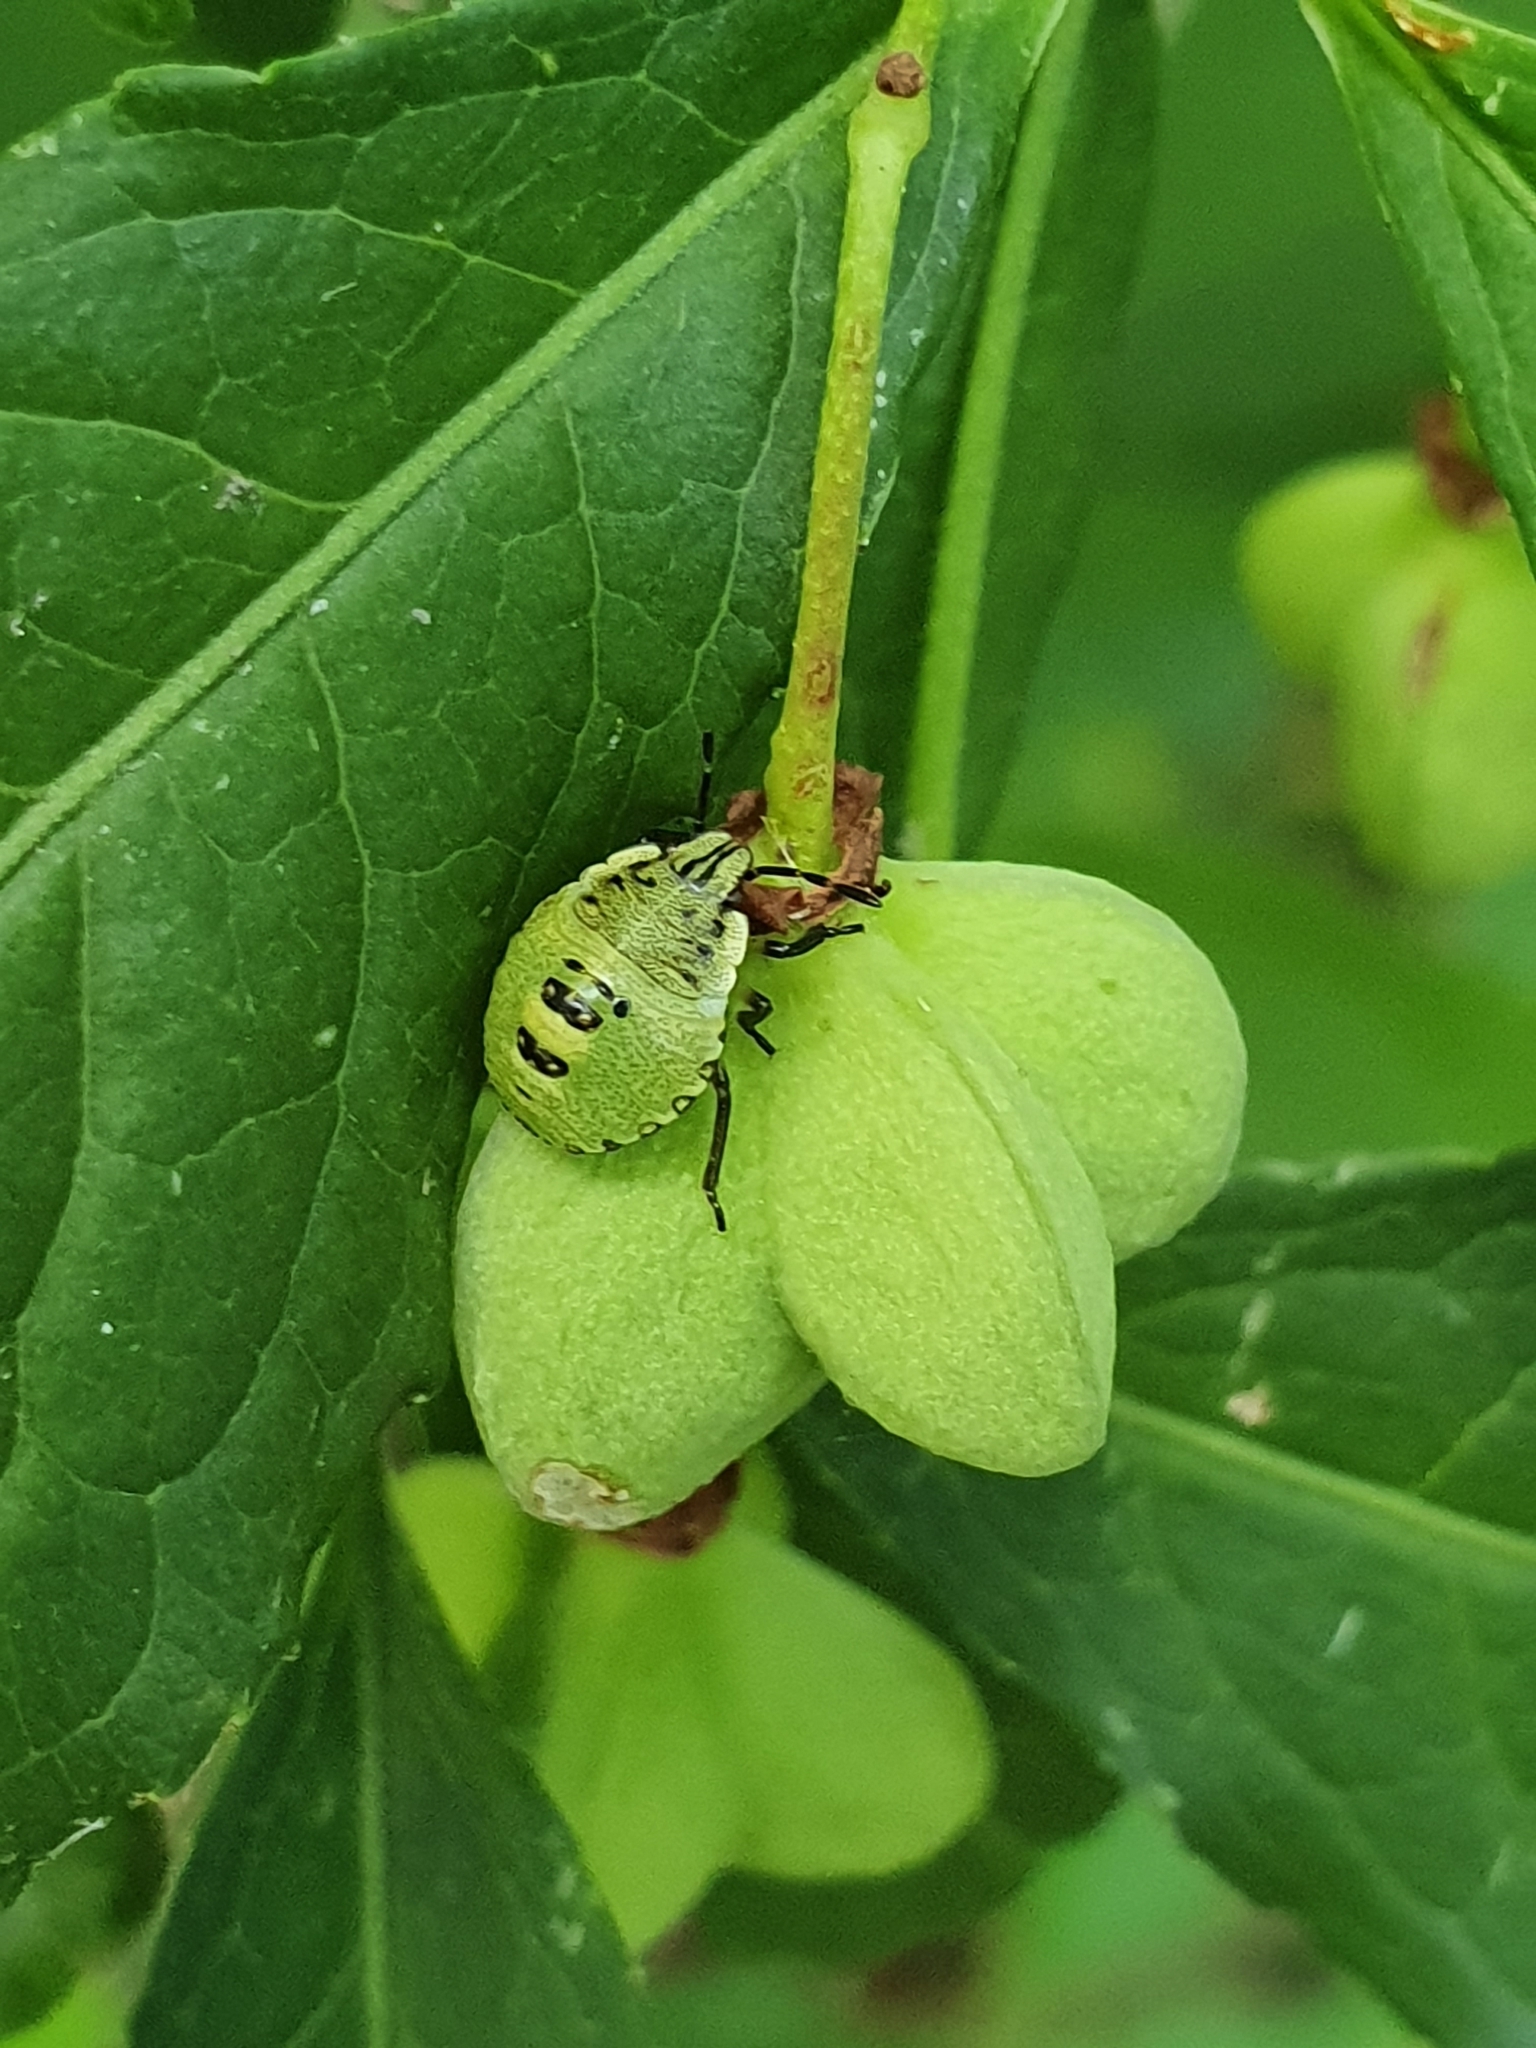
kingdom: Animalia
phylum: Arthropoda
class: Insecta
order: Hemiptera
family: Pentatomidae
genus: Palomena
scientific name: Palomena prasina
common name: Green shieldbug
